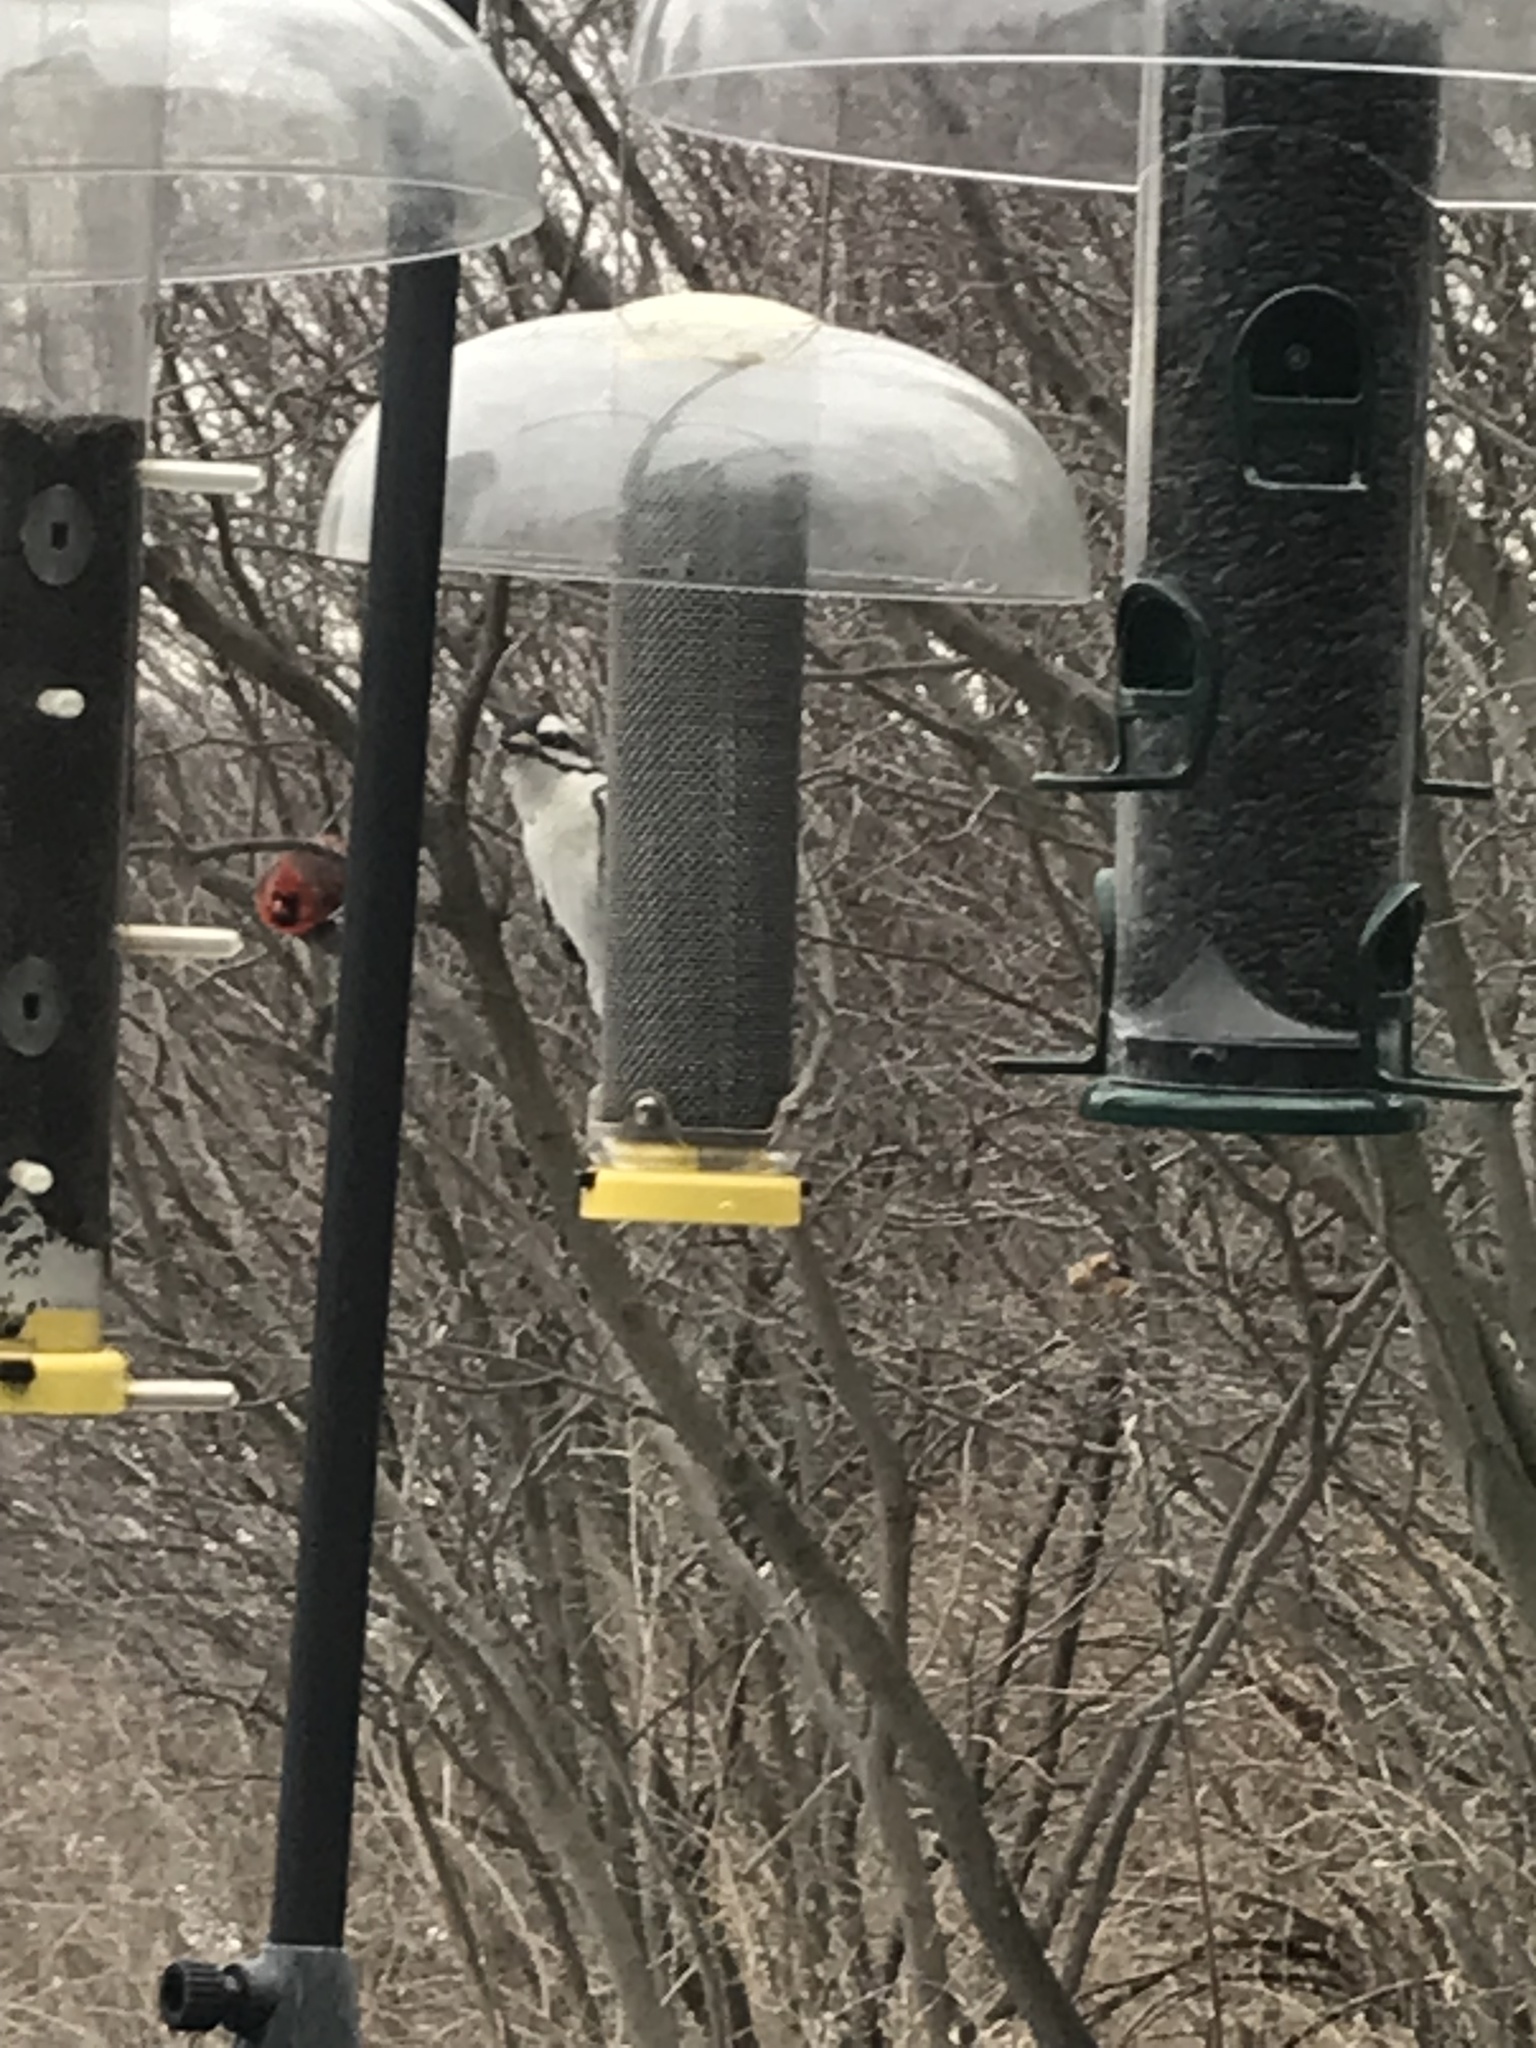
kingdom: Animalia
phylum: Chordata
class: Aves
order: Piciformes
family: Picidae
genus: Leuconotopicus
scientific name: Leuconotopicus villosus
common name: Hairy woodpecker
